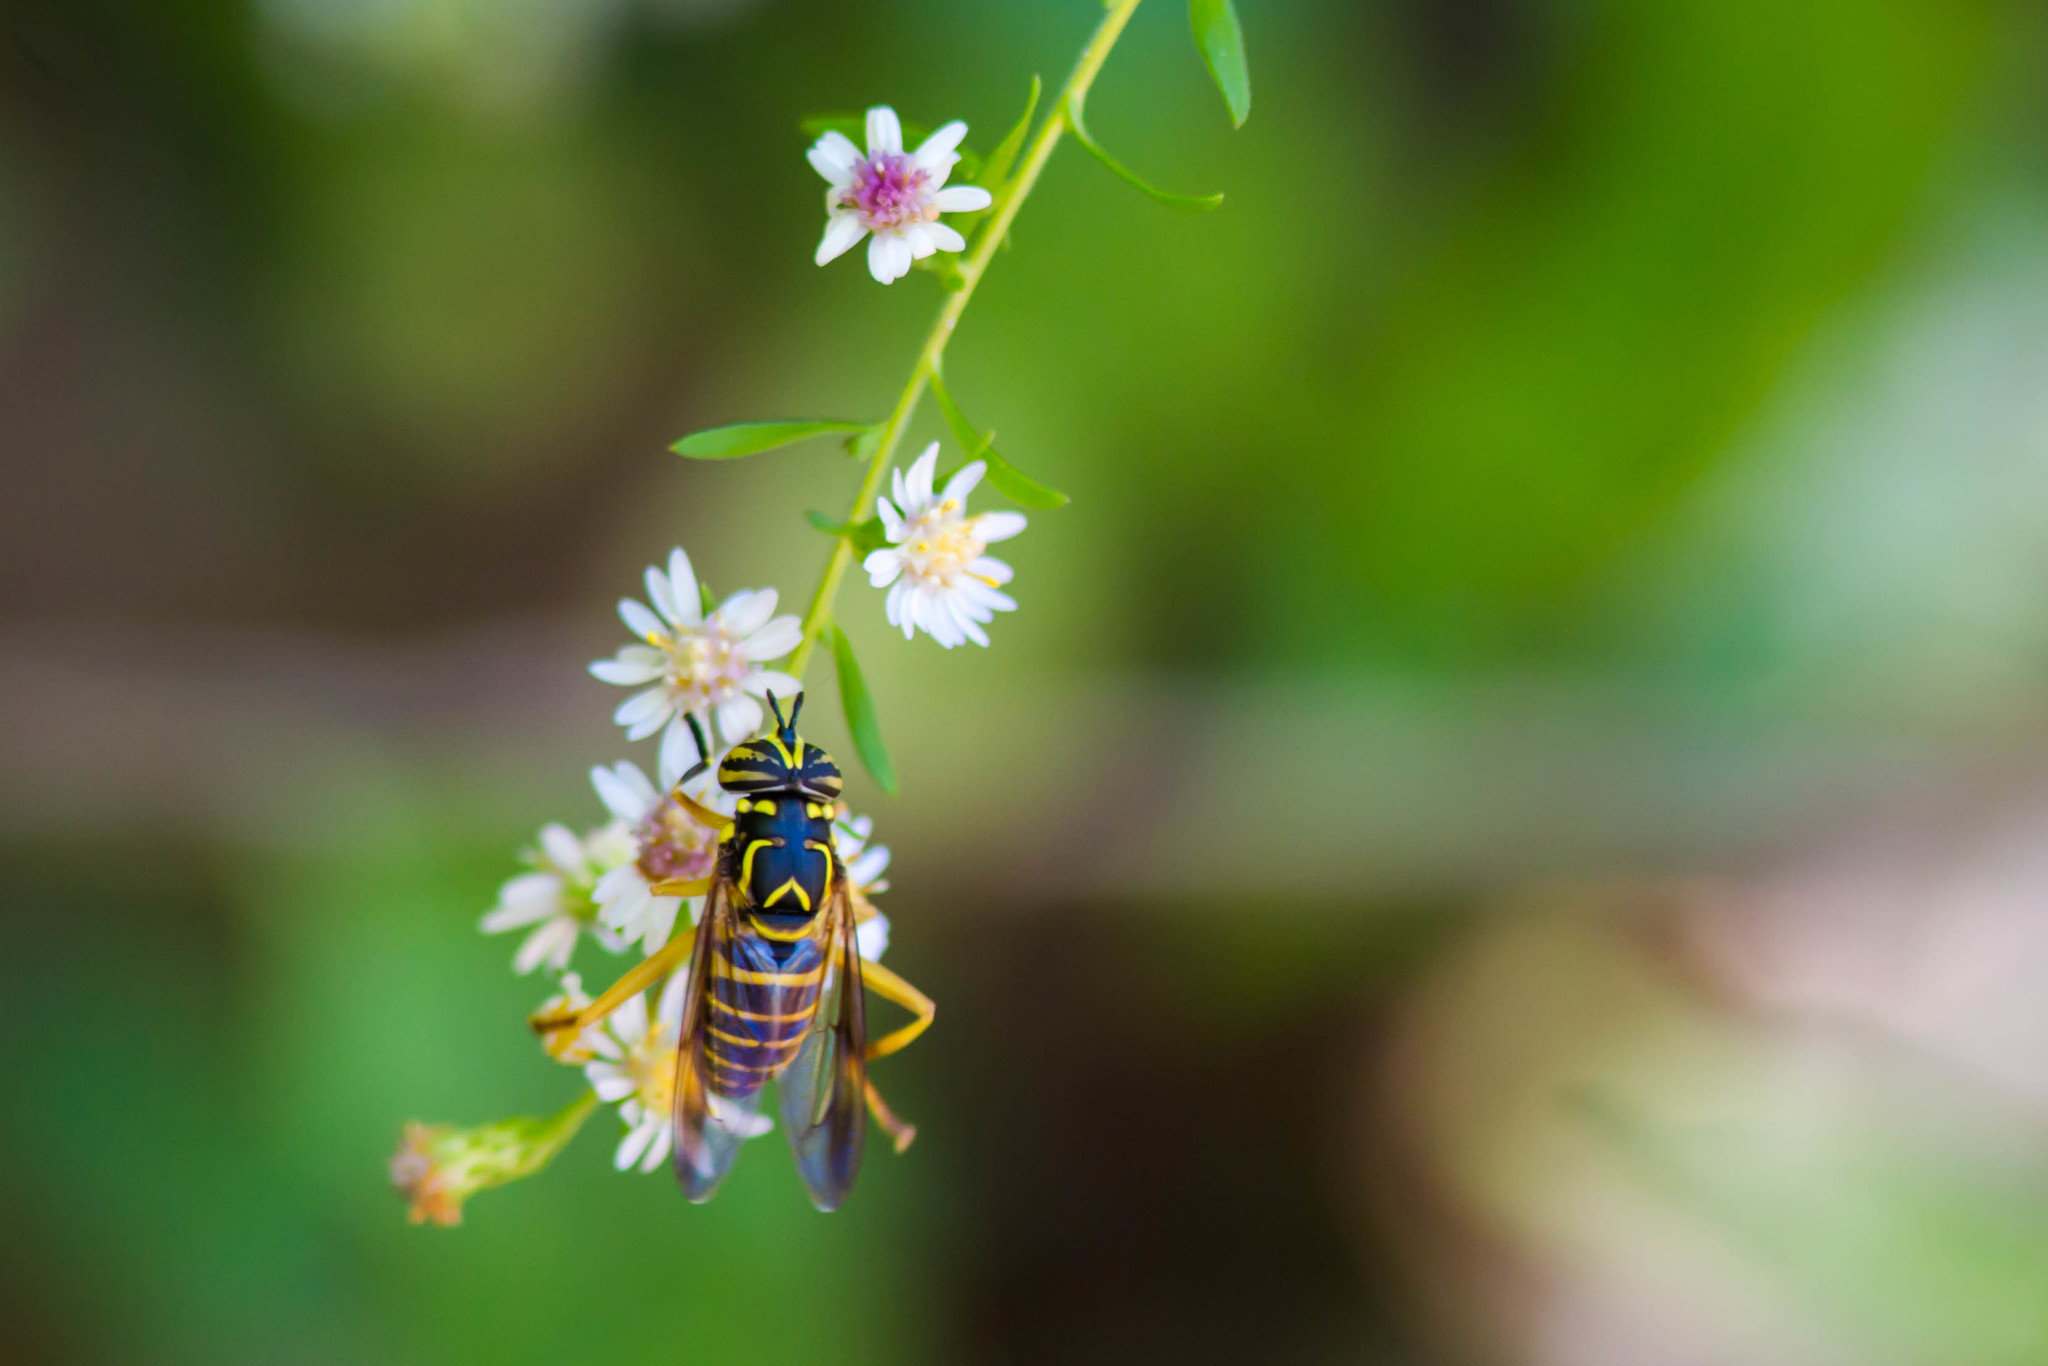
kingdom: Animalia
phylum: Arthropoda
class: Insecta
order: Diptera
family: Syrphidae
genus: Spilomyia
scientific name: Spilomyia longicornis
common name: Eastern hornet fly
